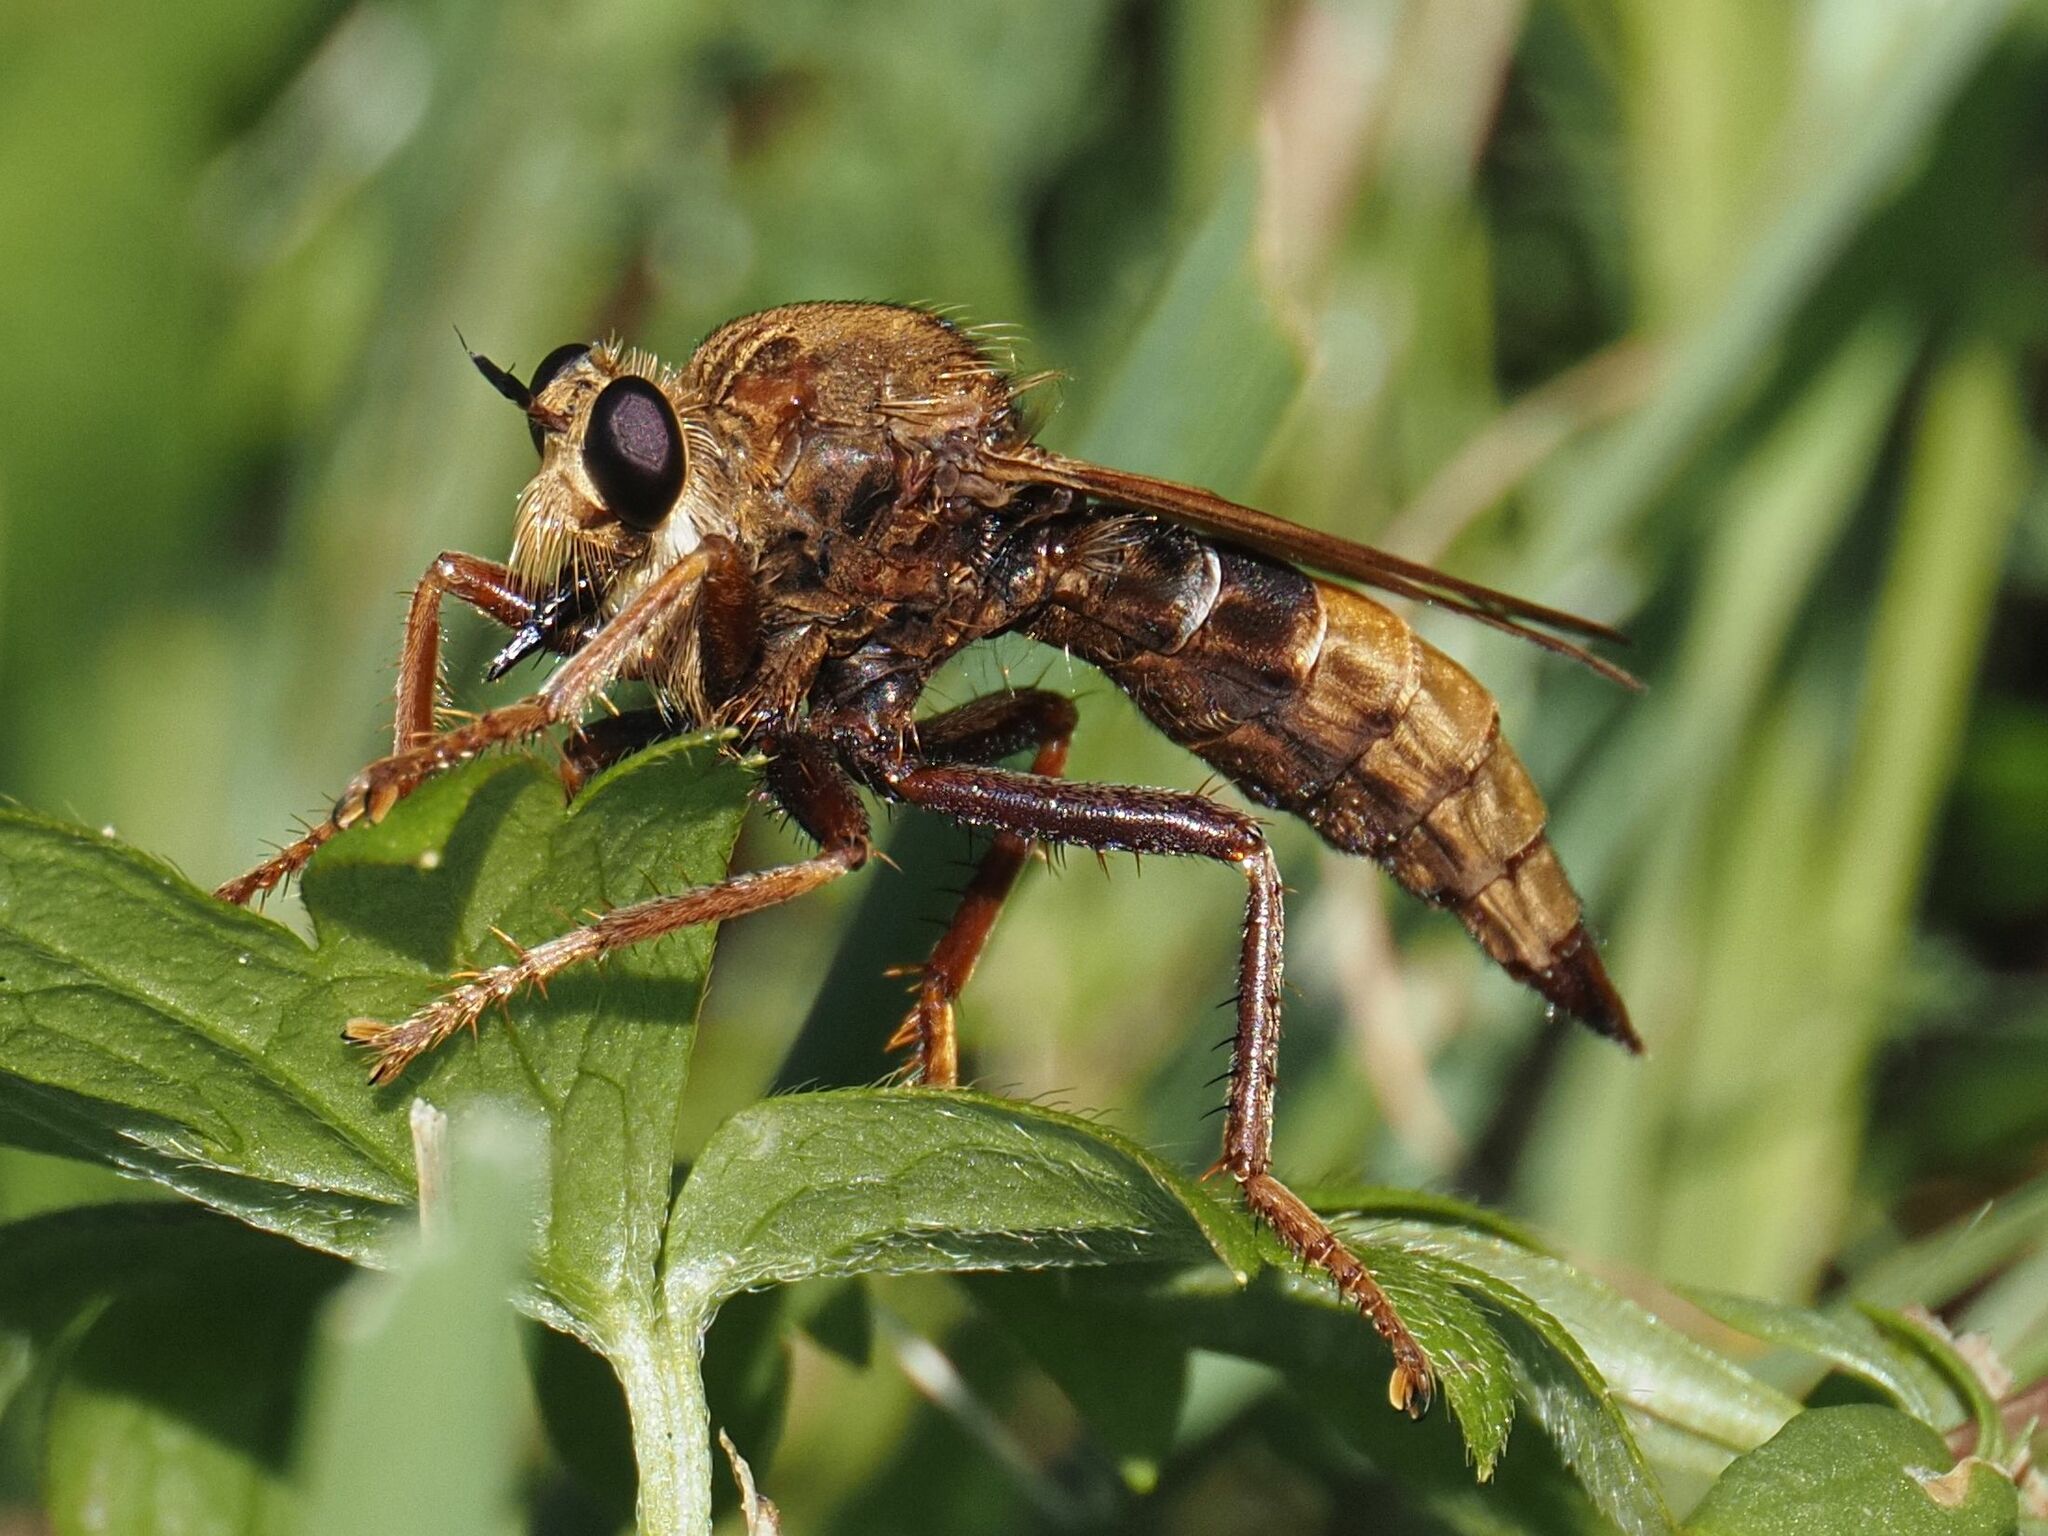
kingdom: Animalia
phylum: Arthropoda
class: Insecta
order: Diptera
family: Asilidae
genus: Asilus
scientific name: Asilus crabroniformis
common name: Hornet robberfly
